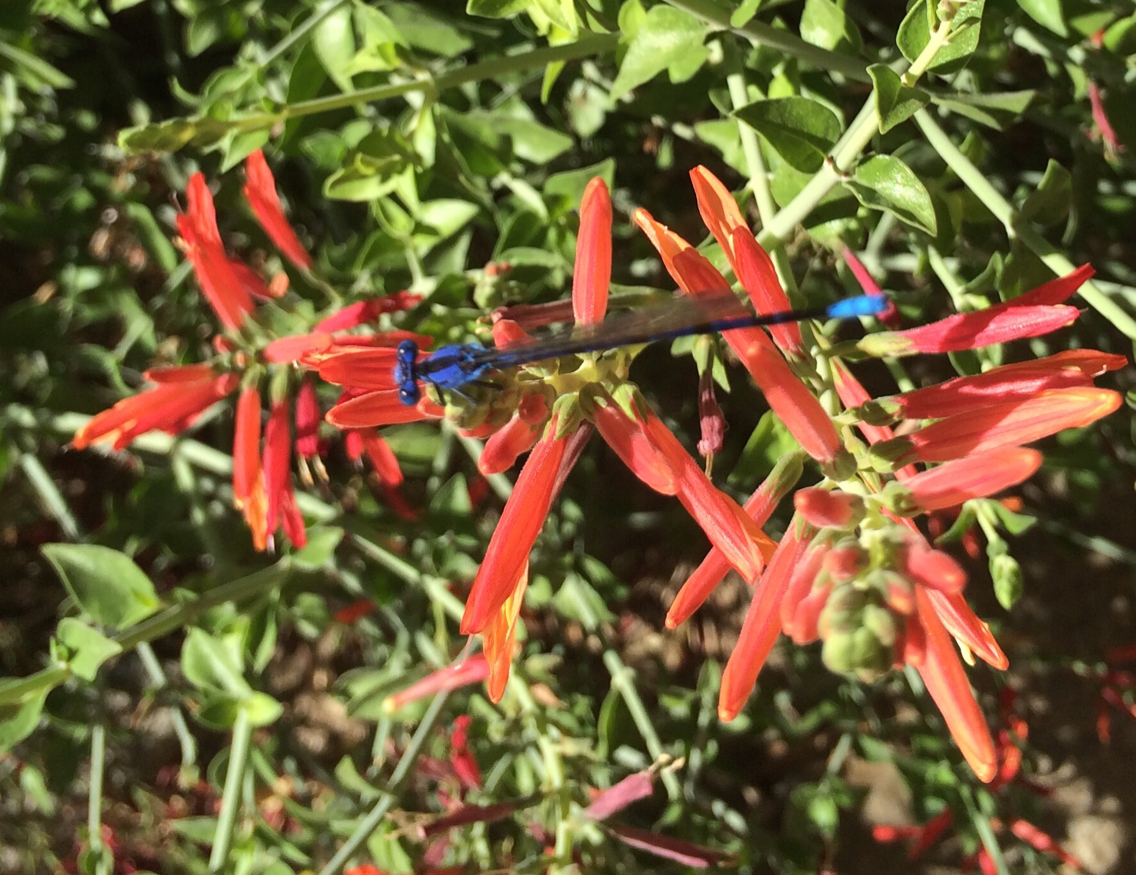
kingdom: Animalia
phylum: Arthropoda
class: Insecta
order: Odonata
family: Coenagrionidae
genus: Argia
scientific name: Argia vivida
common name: Vivid dancer
